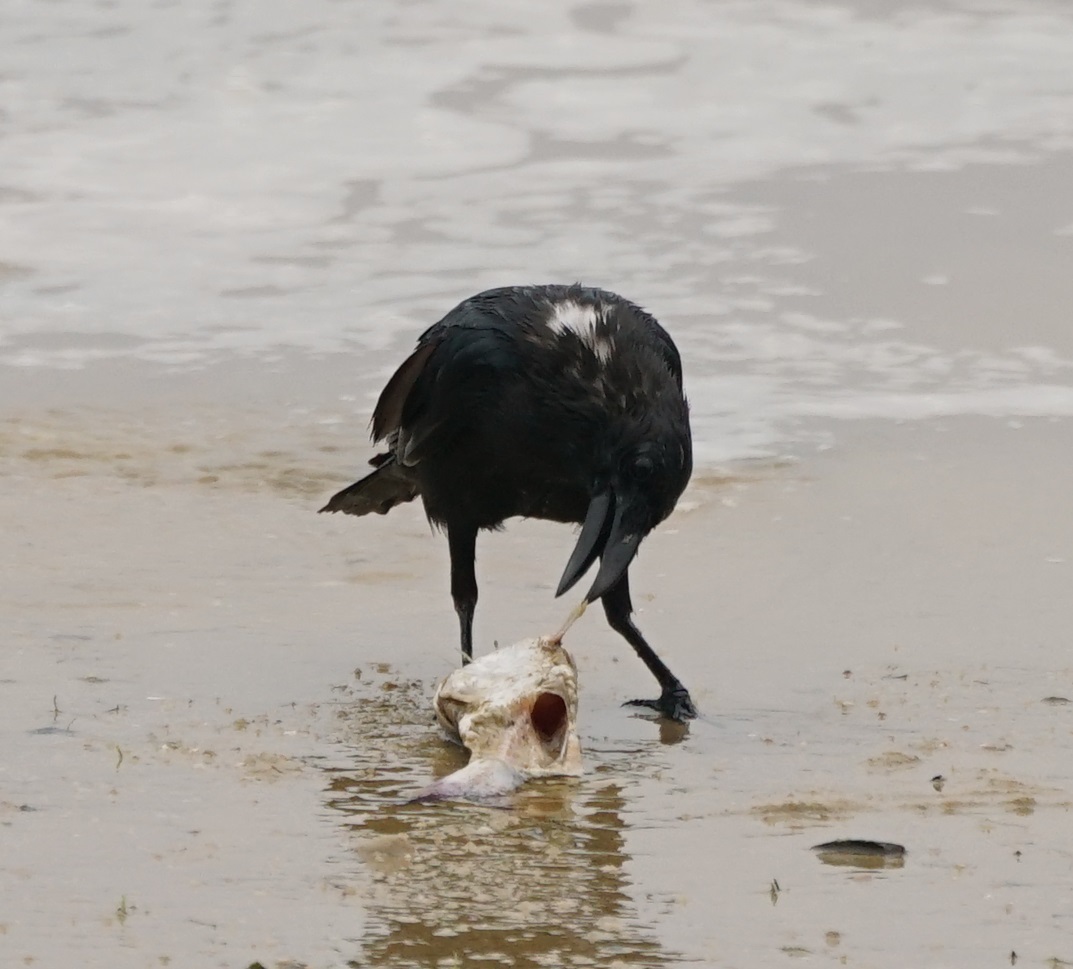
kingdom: Animalia
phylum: Chordata
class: Aves
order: Passeriformes
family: Corvidae
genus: Corvus
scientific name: Corvus macrorhynchos
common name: Large-billed crow
